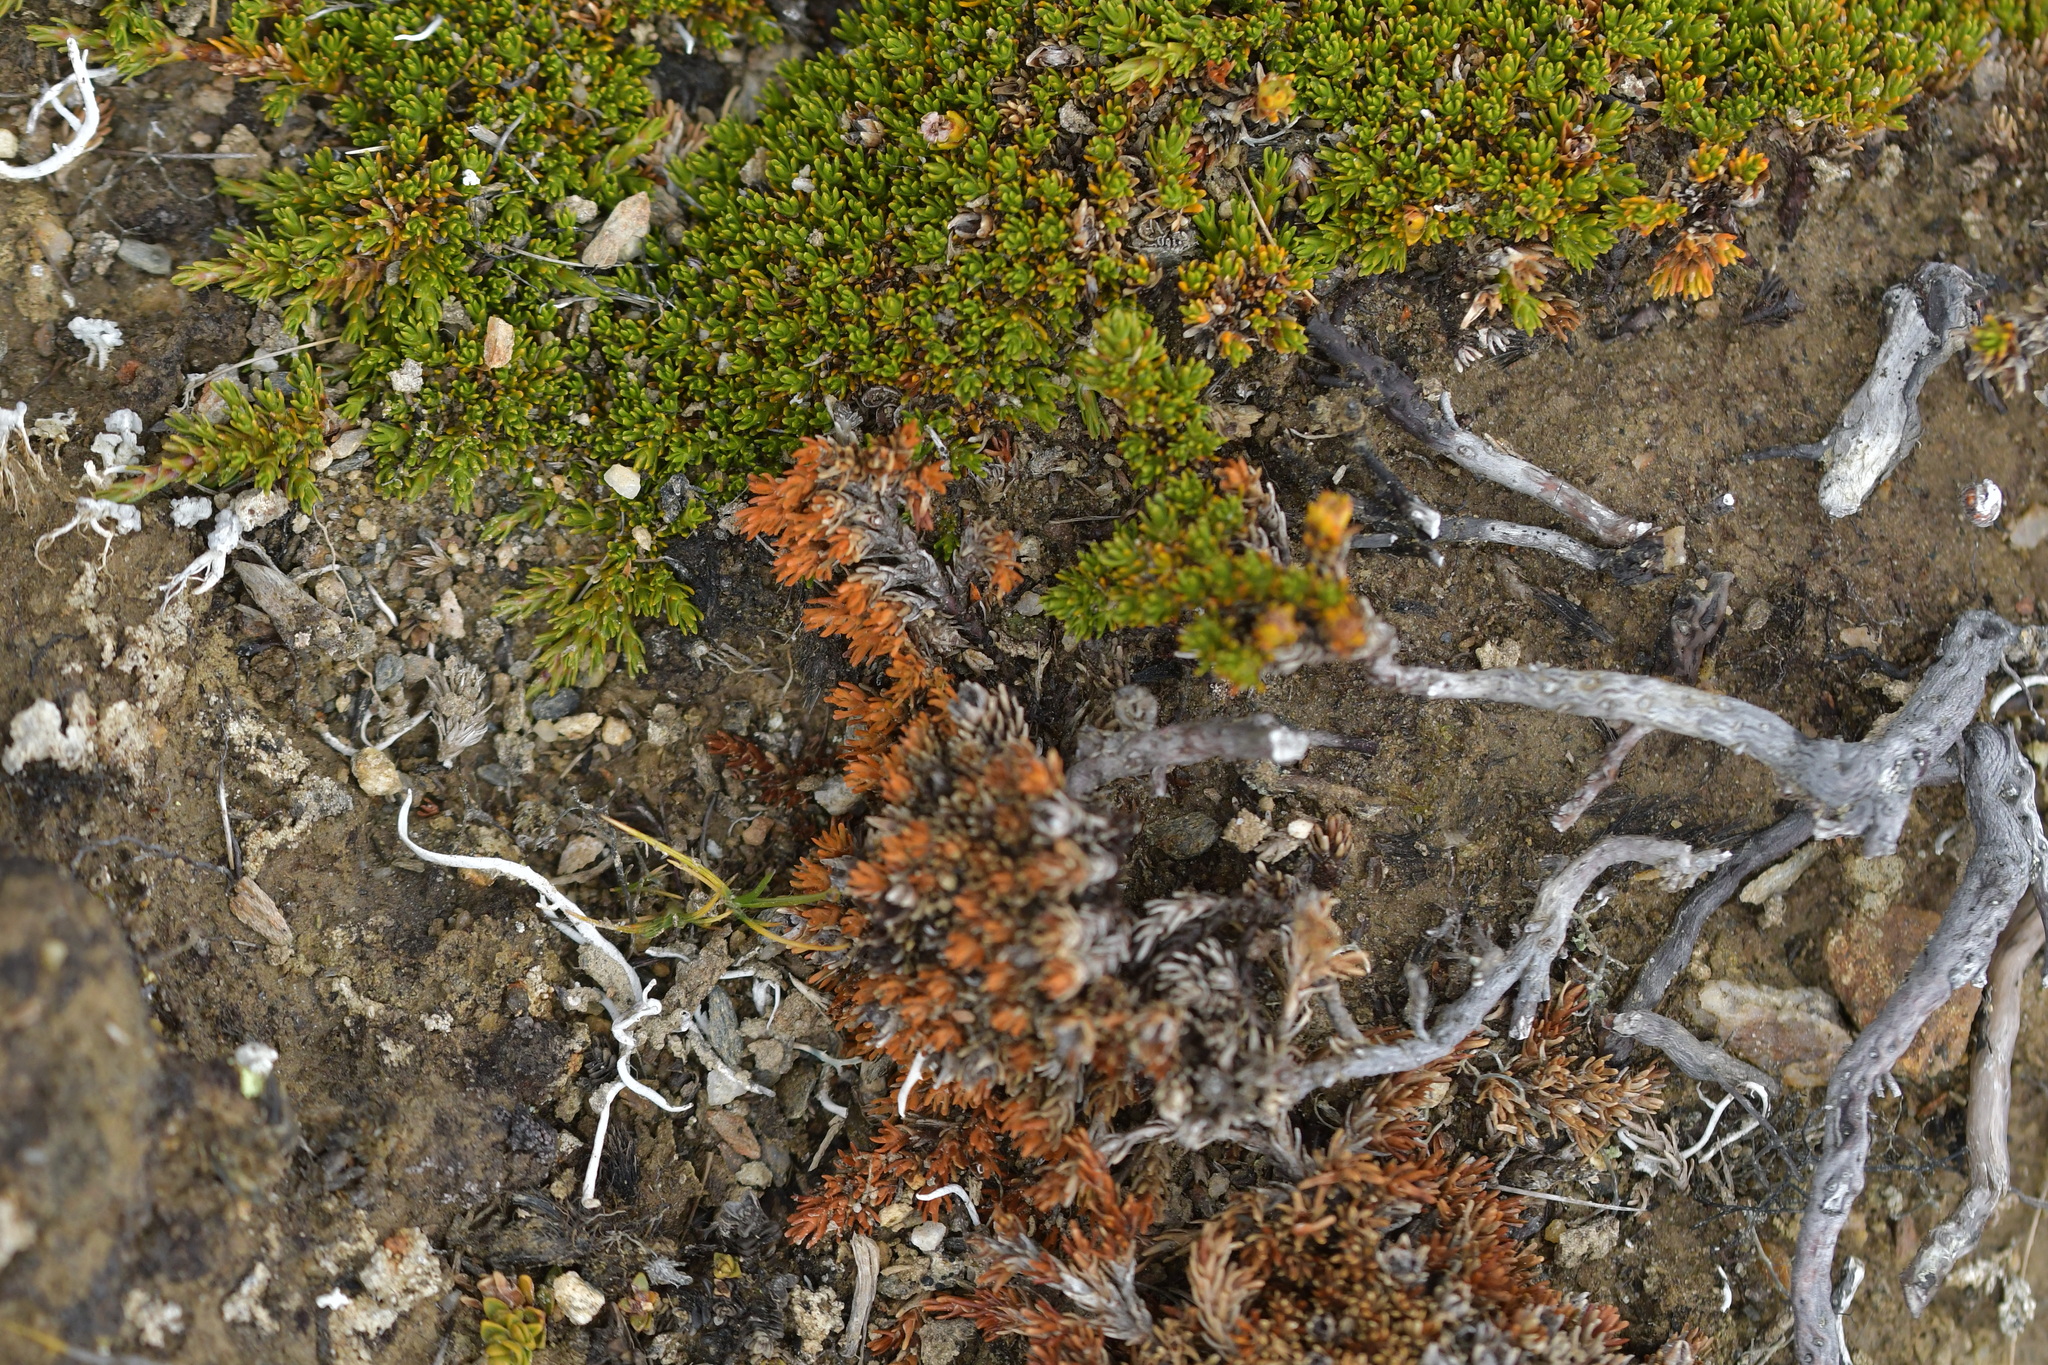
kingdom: Plantae
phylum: Tracheophyta
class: Magnoliopsida
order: Ericales
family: Ericaceae
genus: Dracophyllum
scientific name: Dracophyllum muscoides
